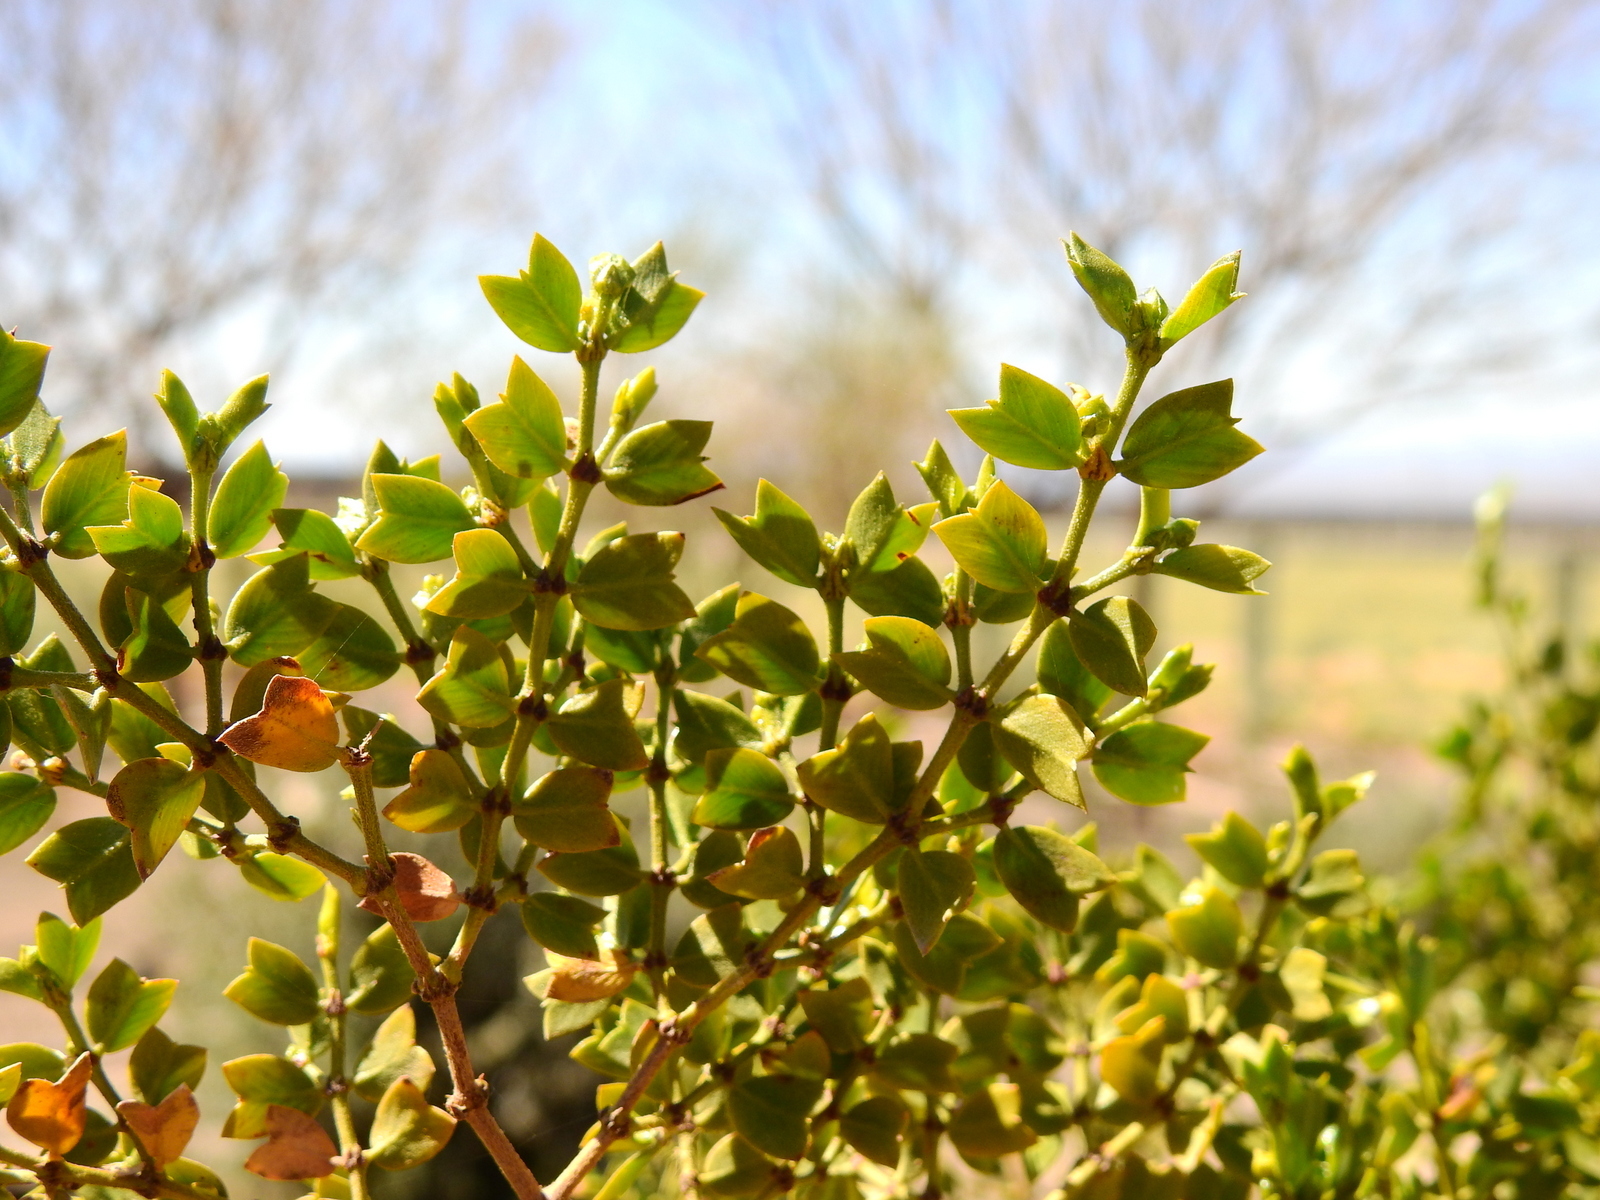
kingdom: Plantae
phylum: Tracheophyta
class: Magnoliopsida
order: Zygophyllales
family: Zygophyllaceae
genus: Larrea
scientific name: Larrea cuneifolia
